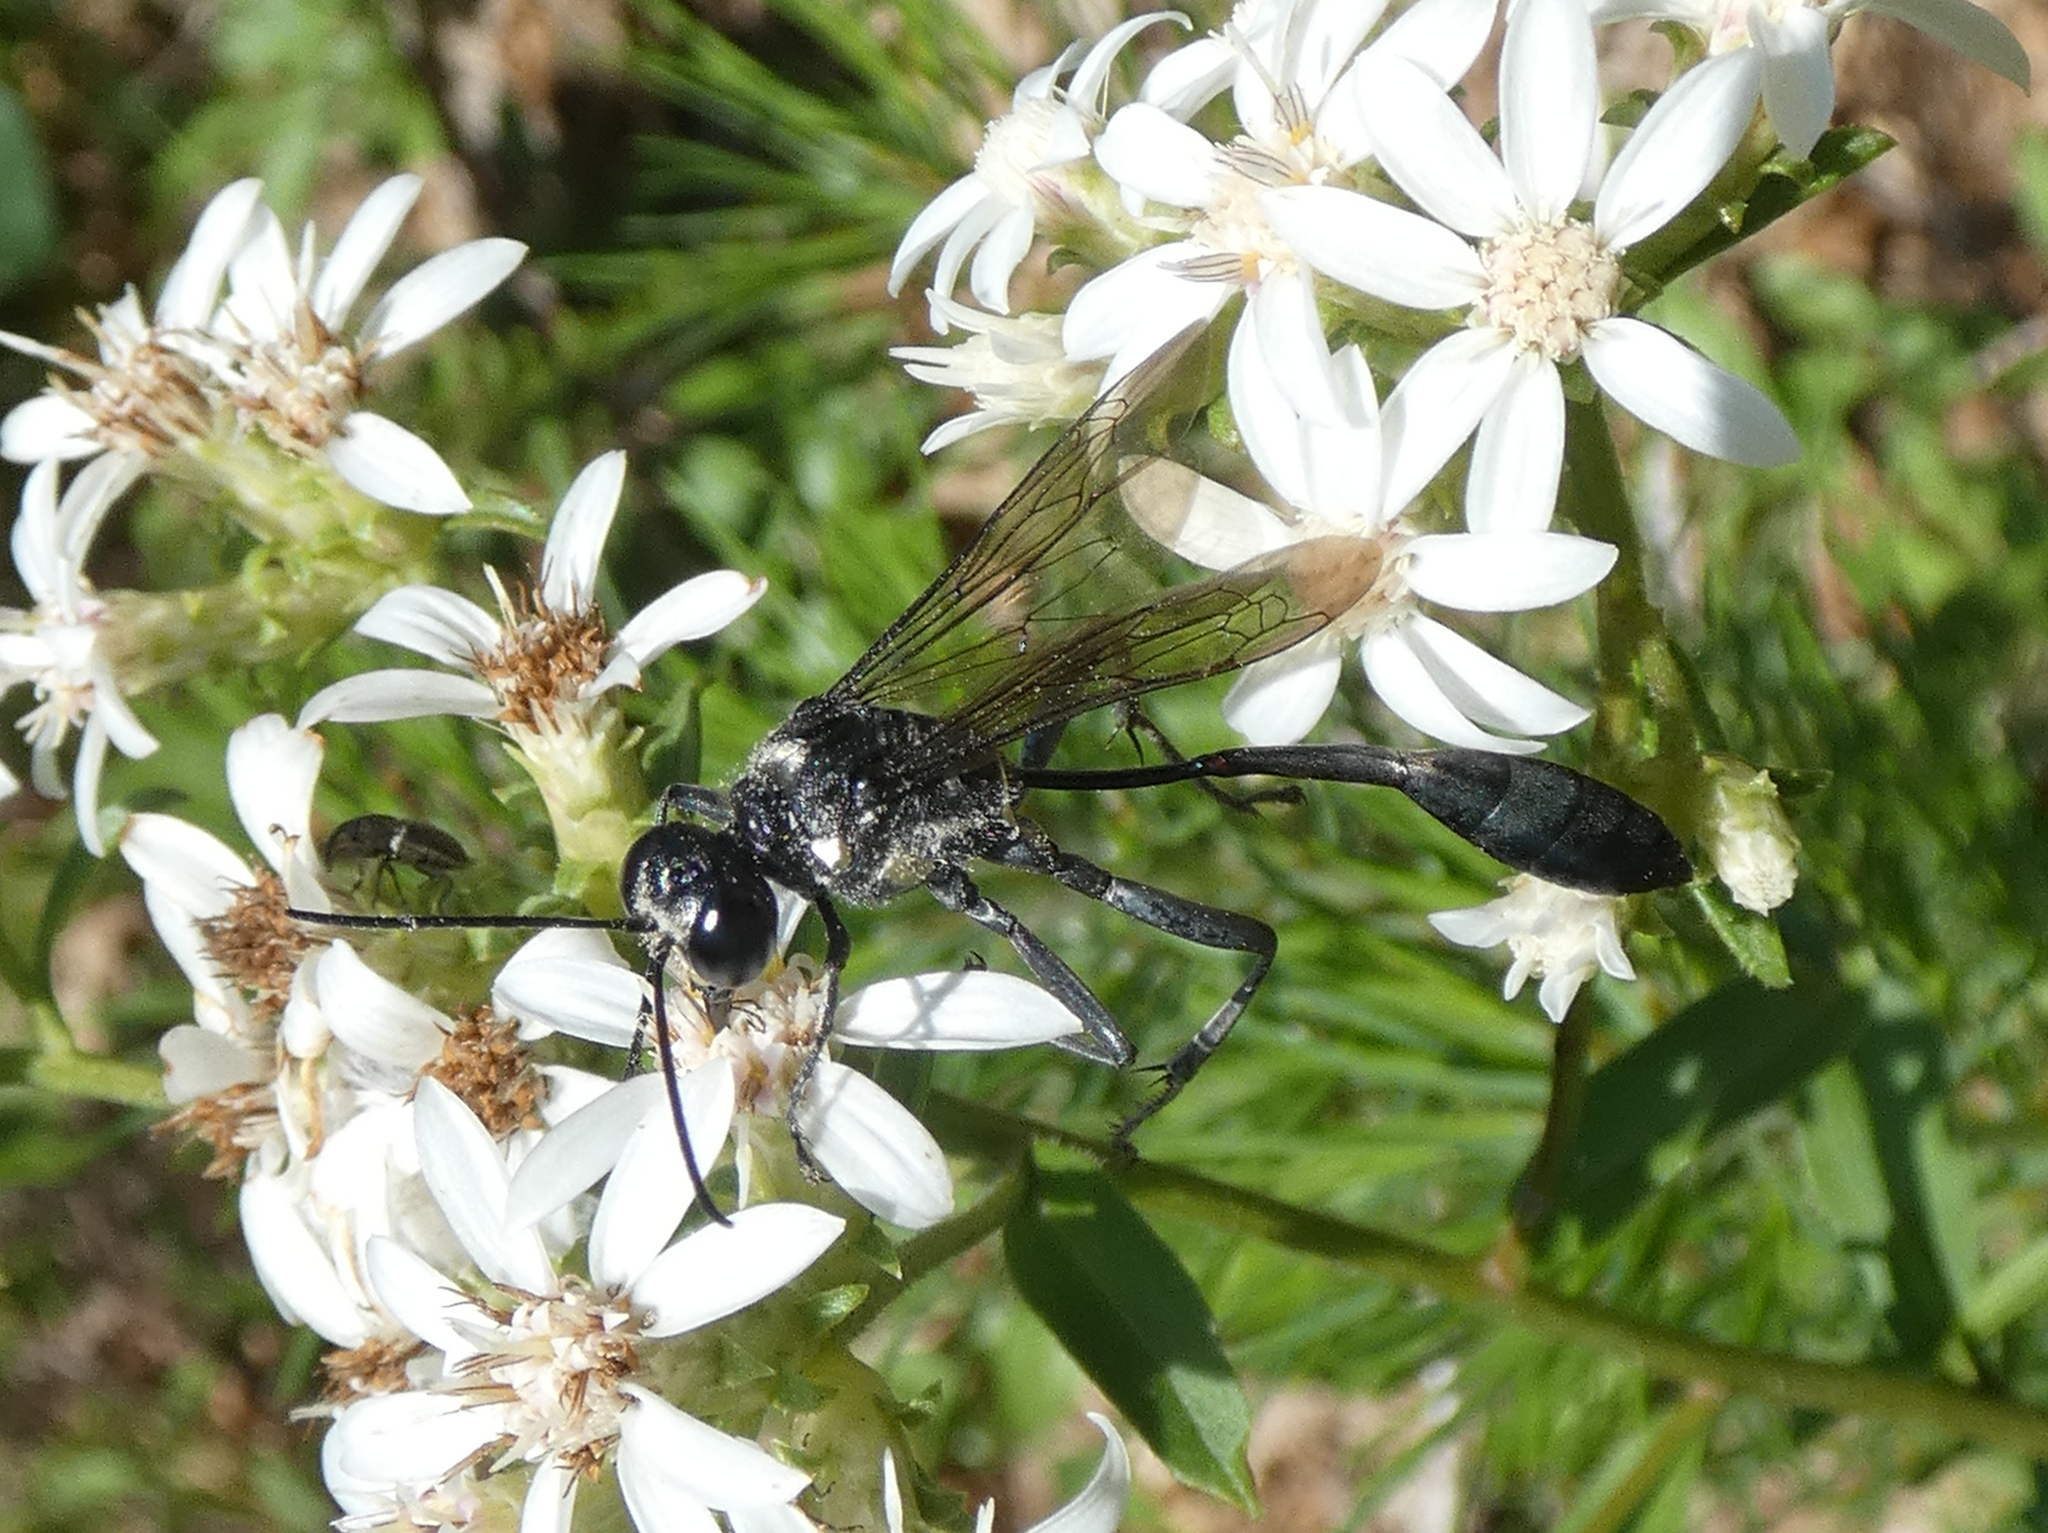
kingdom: Animalia
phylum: Arthropoda
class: Insecta
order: Hymenoptera
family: Sphecidae
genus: Eremnophila
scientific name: Eremnophila aureonotata
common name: Gold-marked thread-waisted wasp
